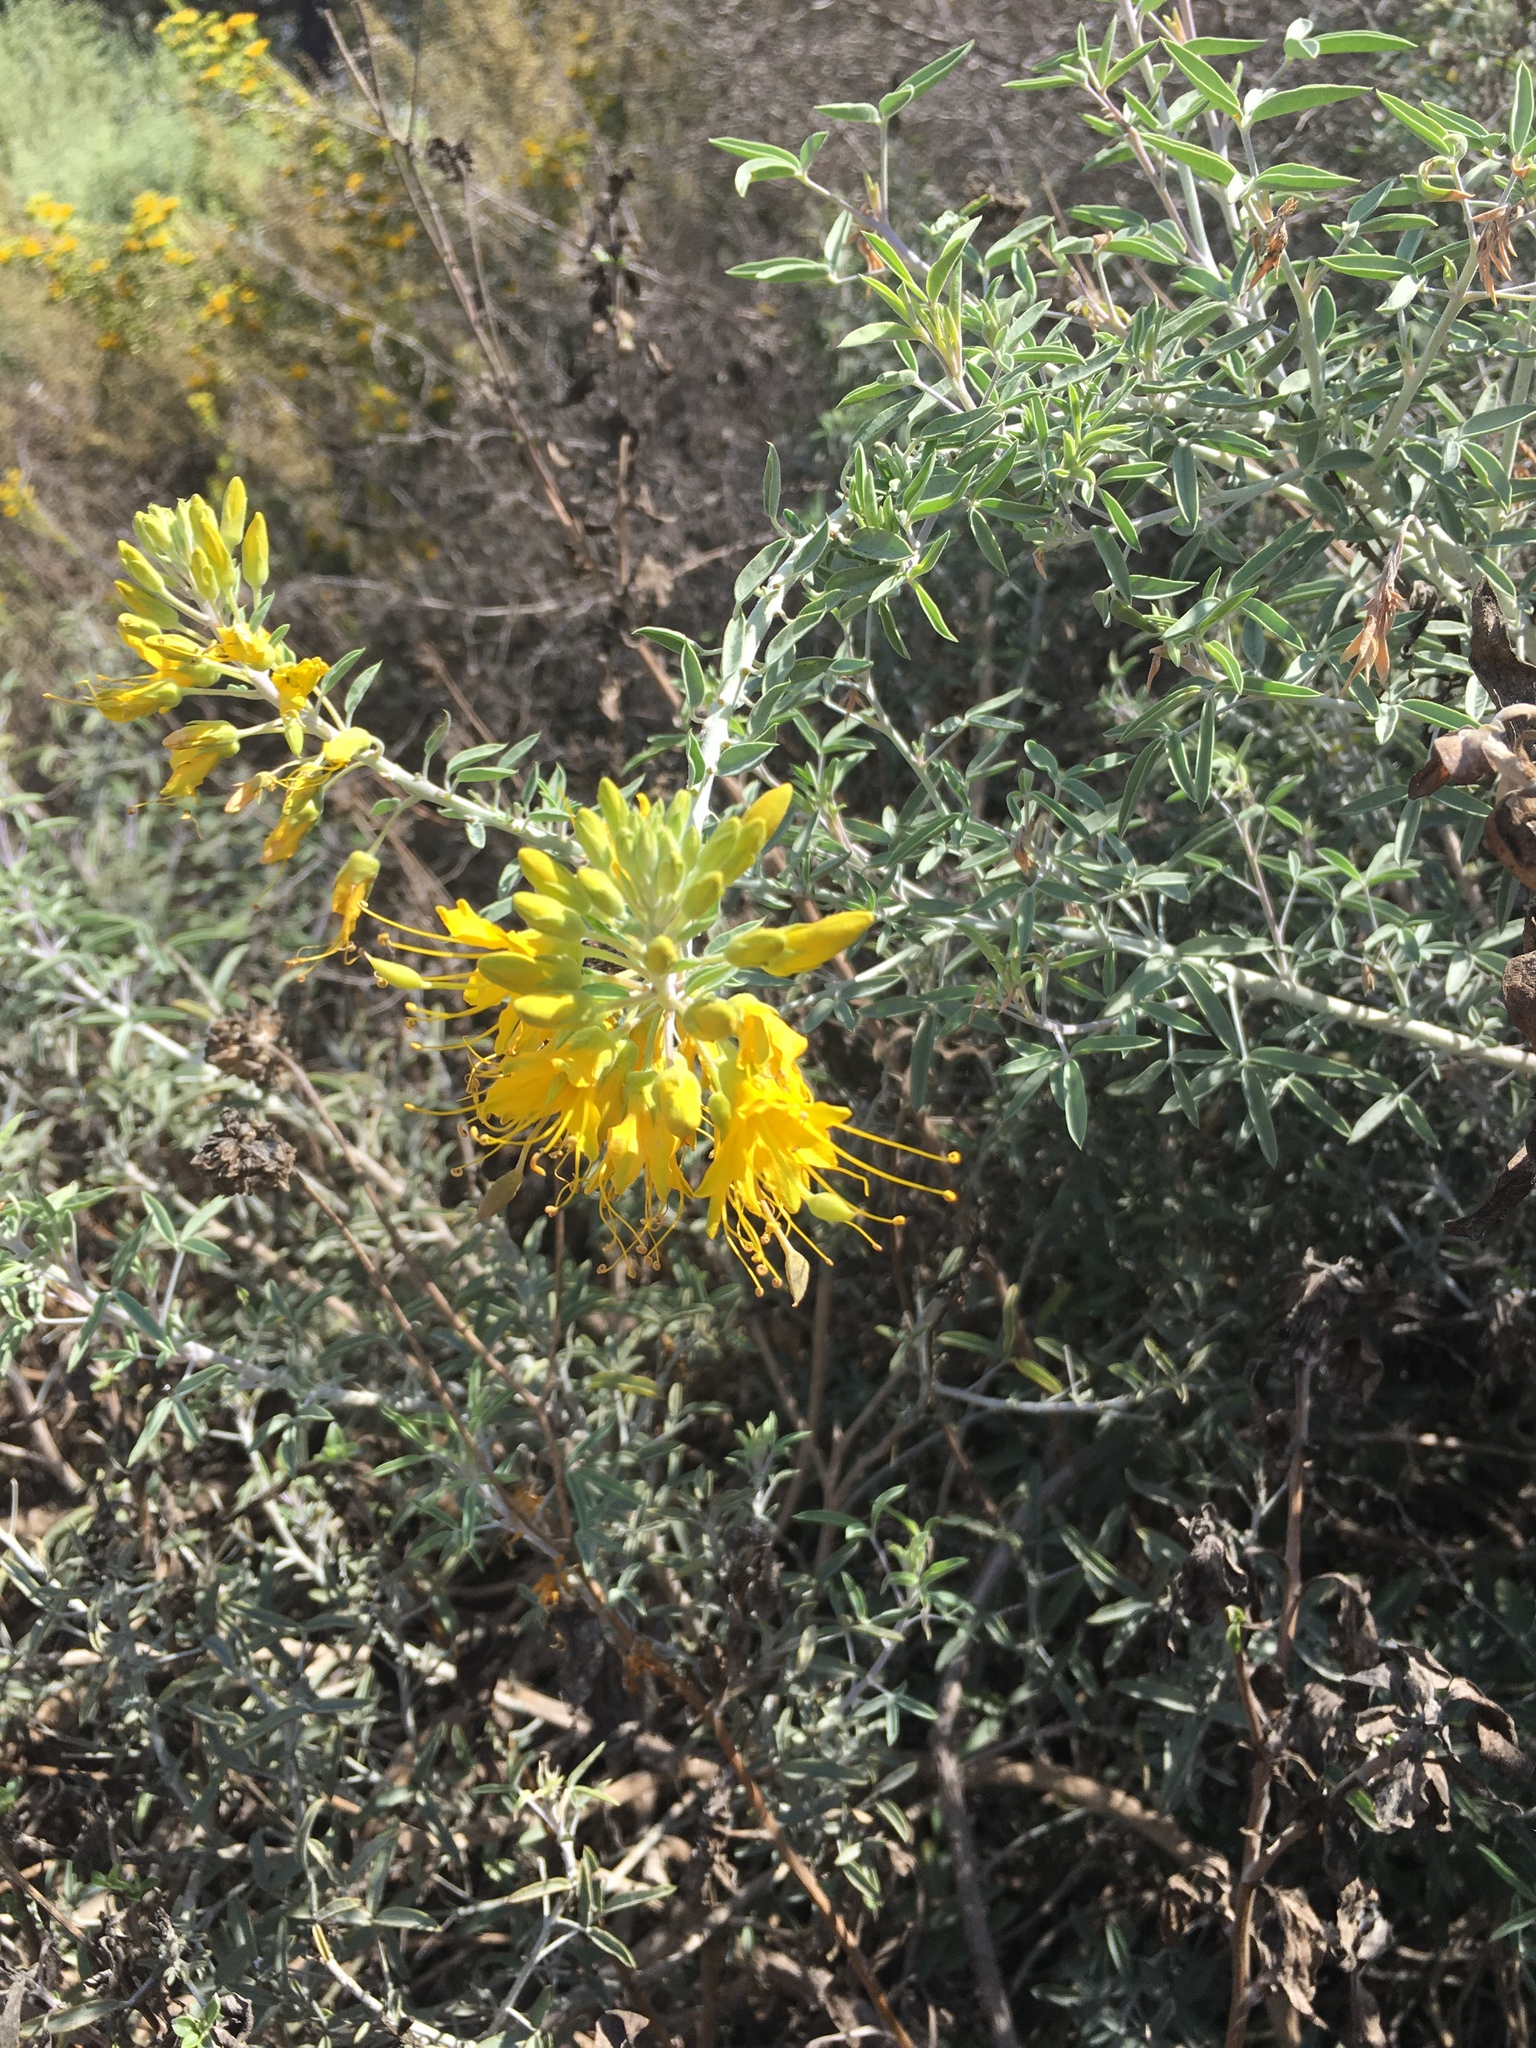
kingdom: Plantae
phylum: Tracheophyta
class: Magnoliopsida
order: Brassicales
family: Cleomaceae
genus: Cleomella
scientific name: Cleomella arborea
